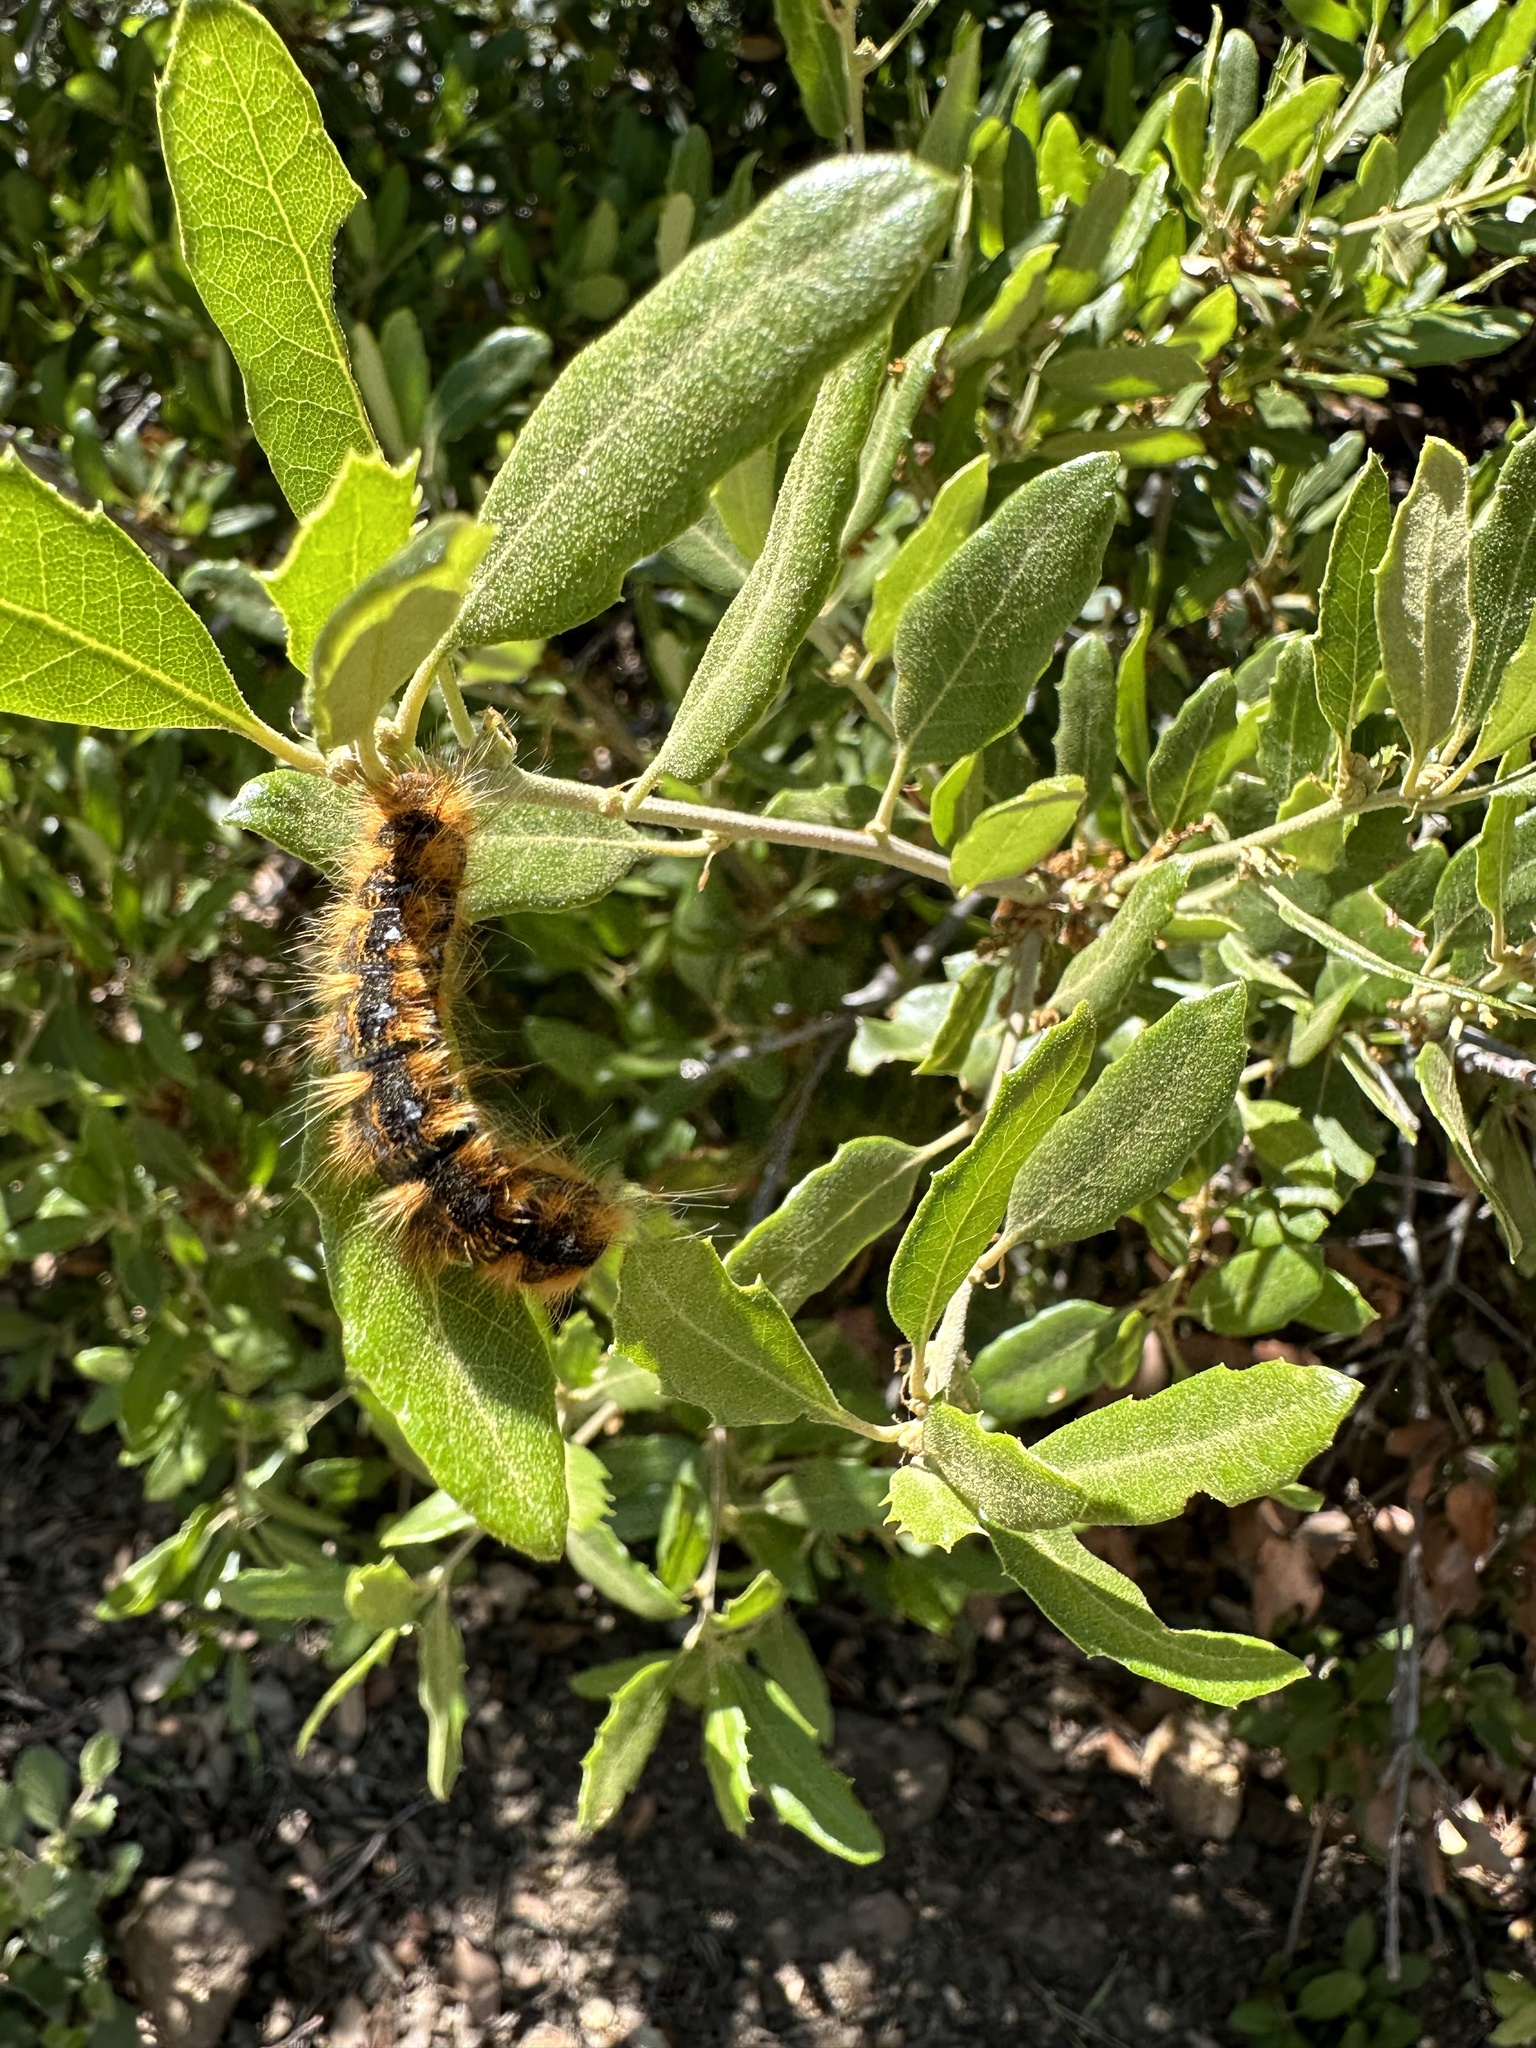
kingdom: Animalia
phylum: Arthropoda
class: Insecta
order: Lepidoptera
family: Lasiocampidae
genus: Malacosoma
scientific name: Malacosoma constricta
